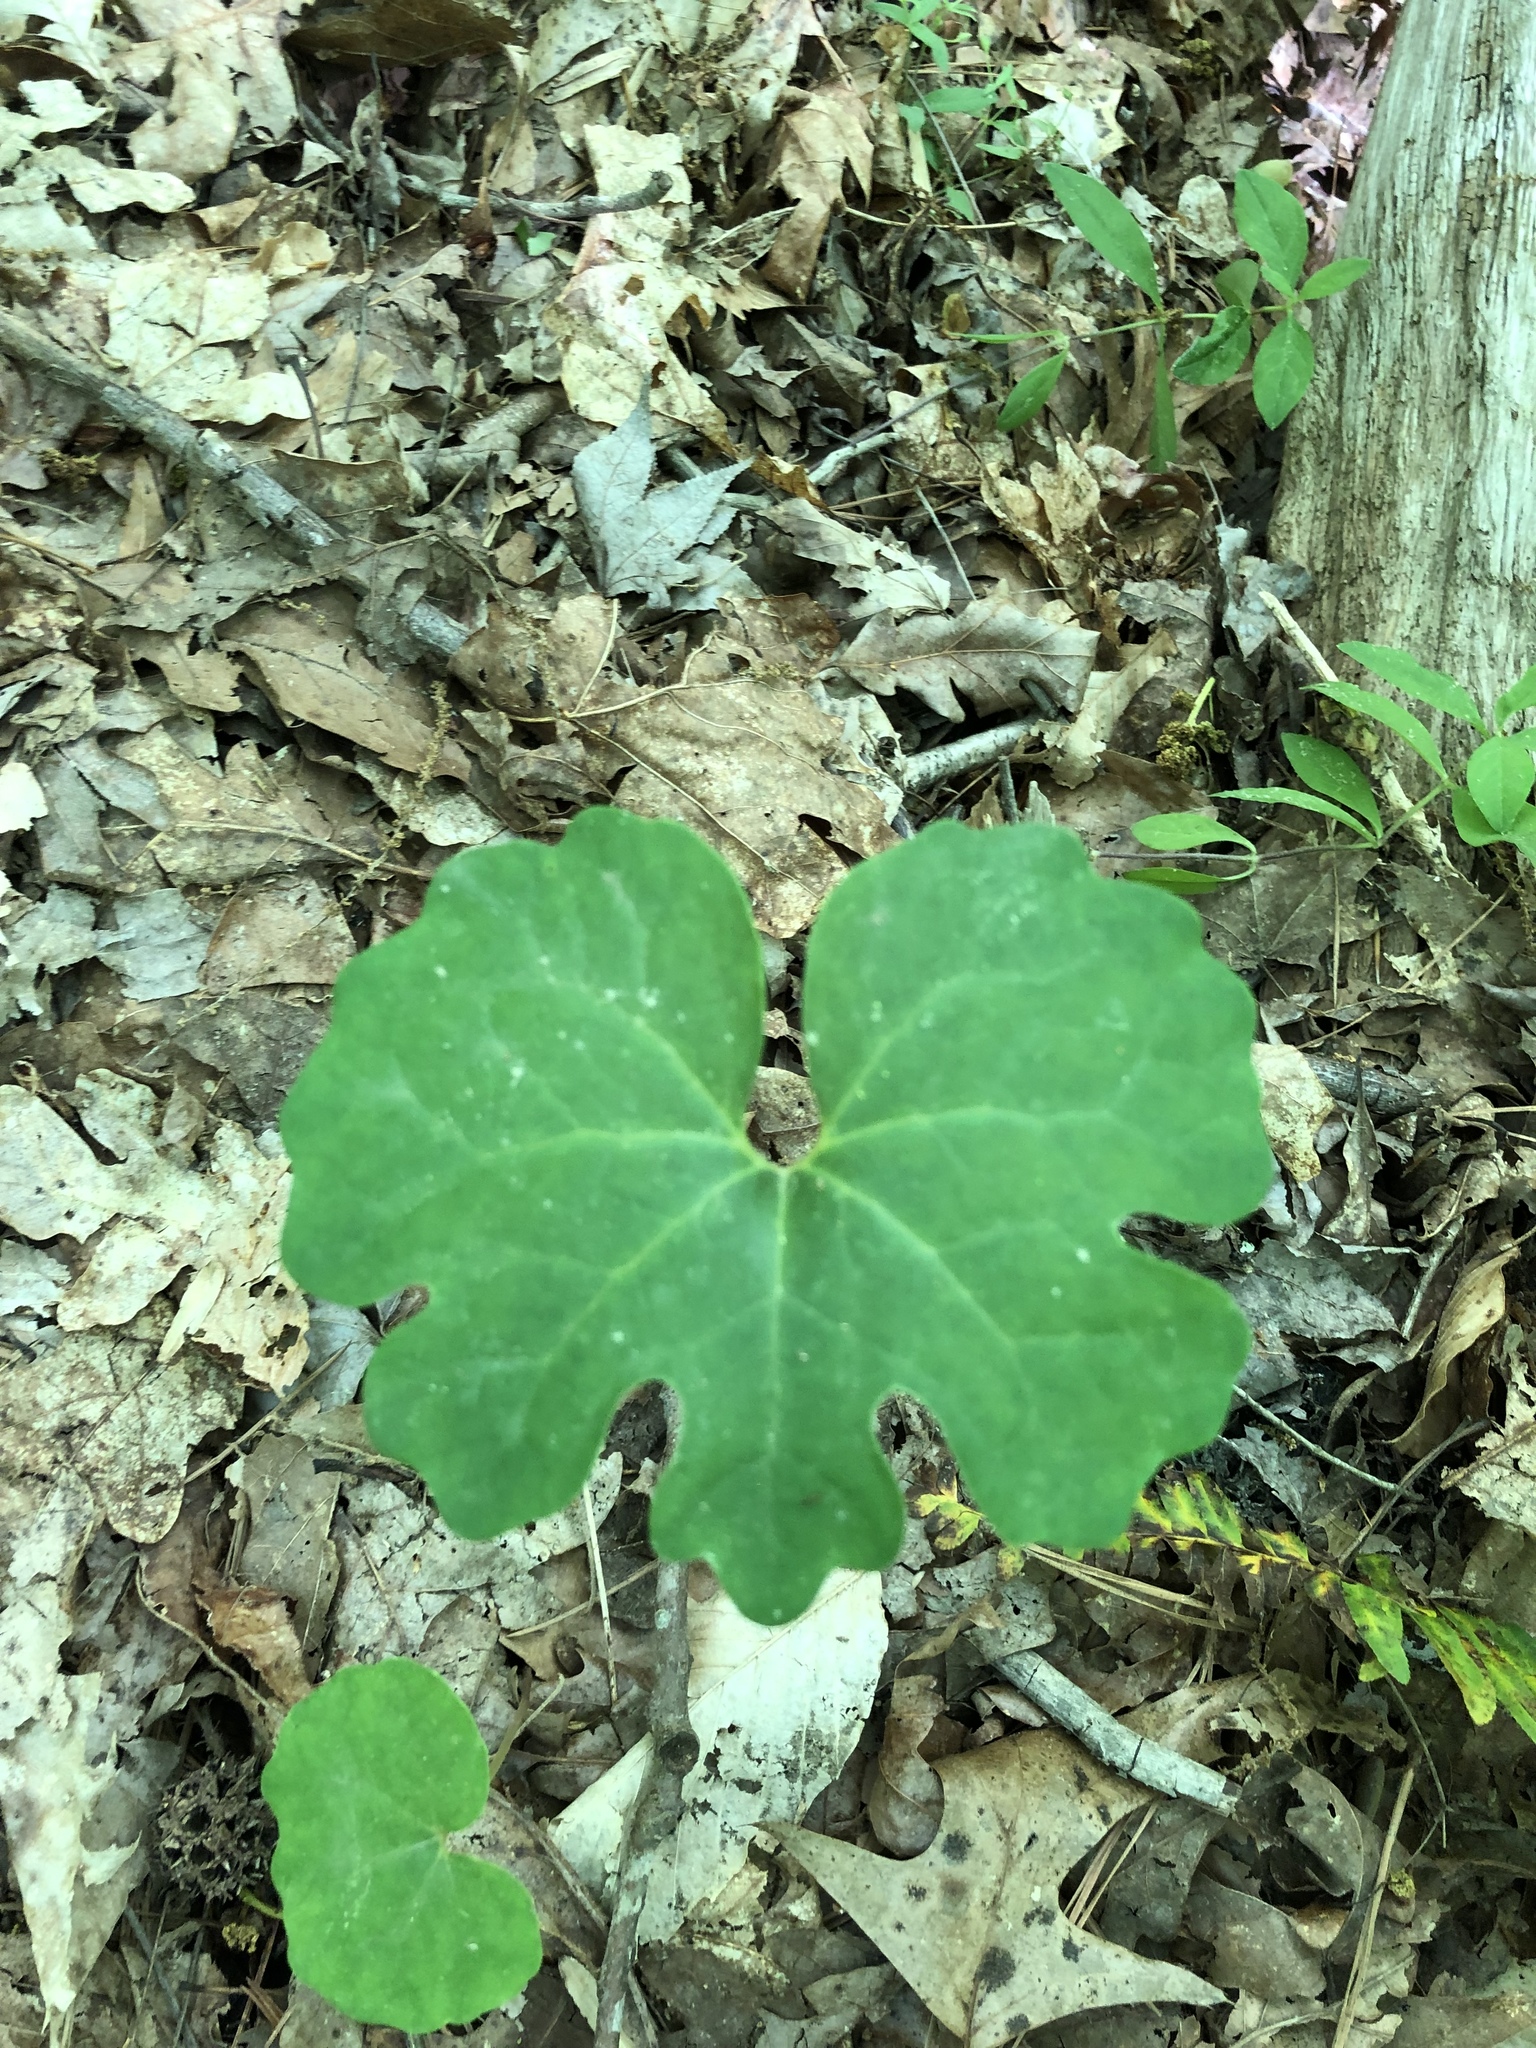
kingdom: Plantae
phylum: Tracheophyta
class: Magnoliopsida
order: Ranunculales
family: Papaveraceae
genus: Sanguinaria
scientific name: Sanguinaria canadensis
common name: Bloodroot
